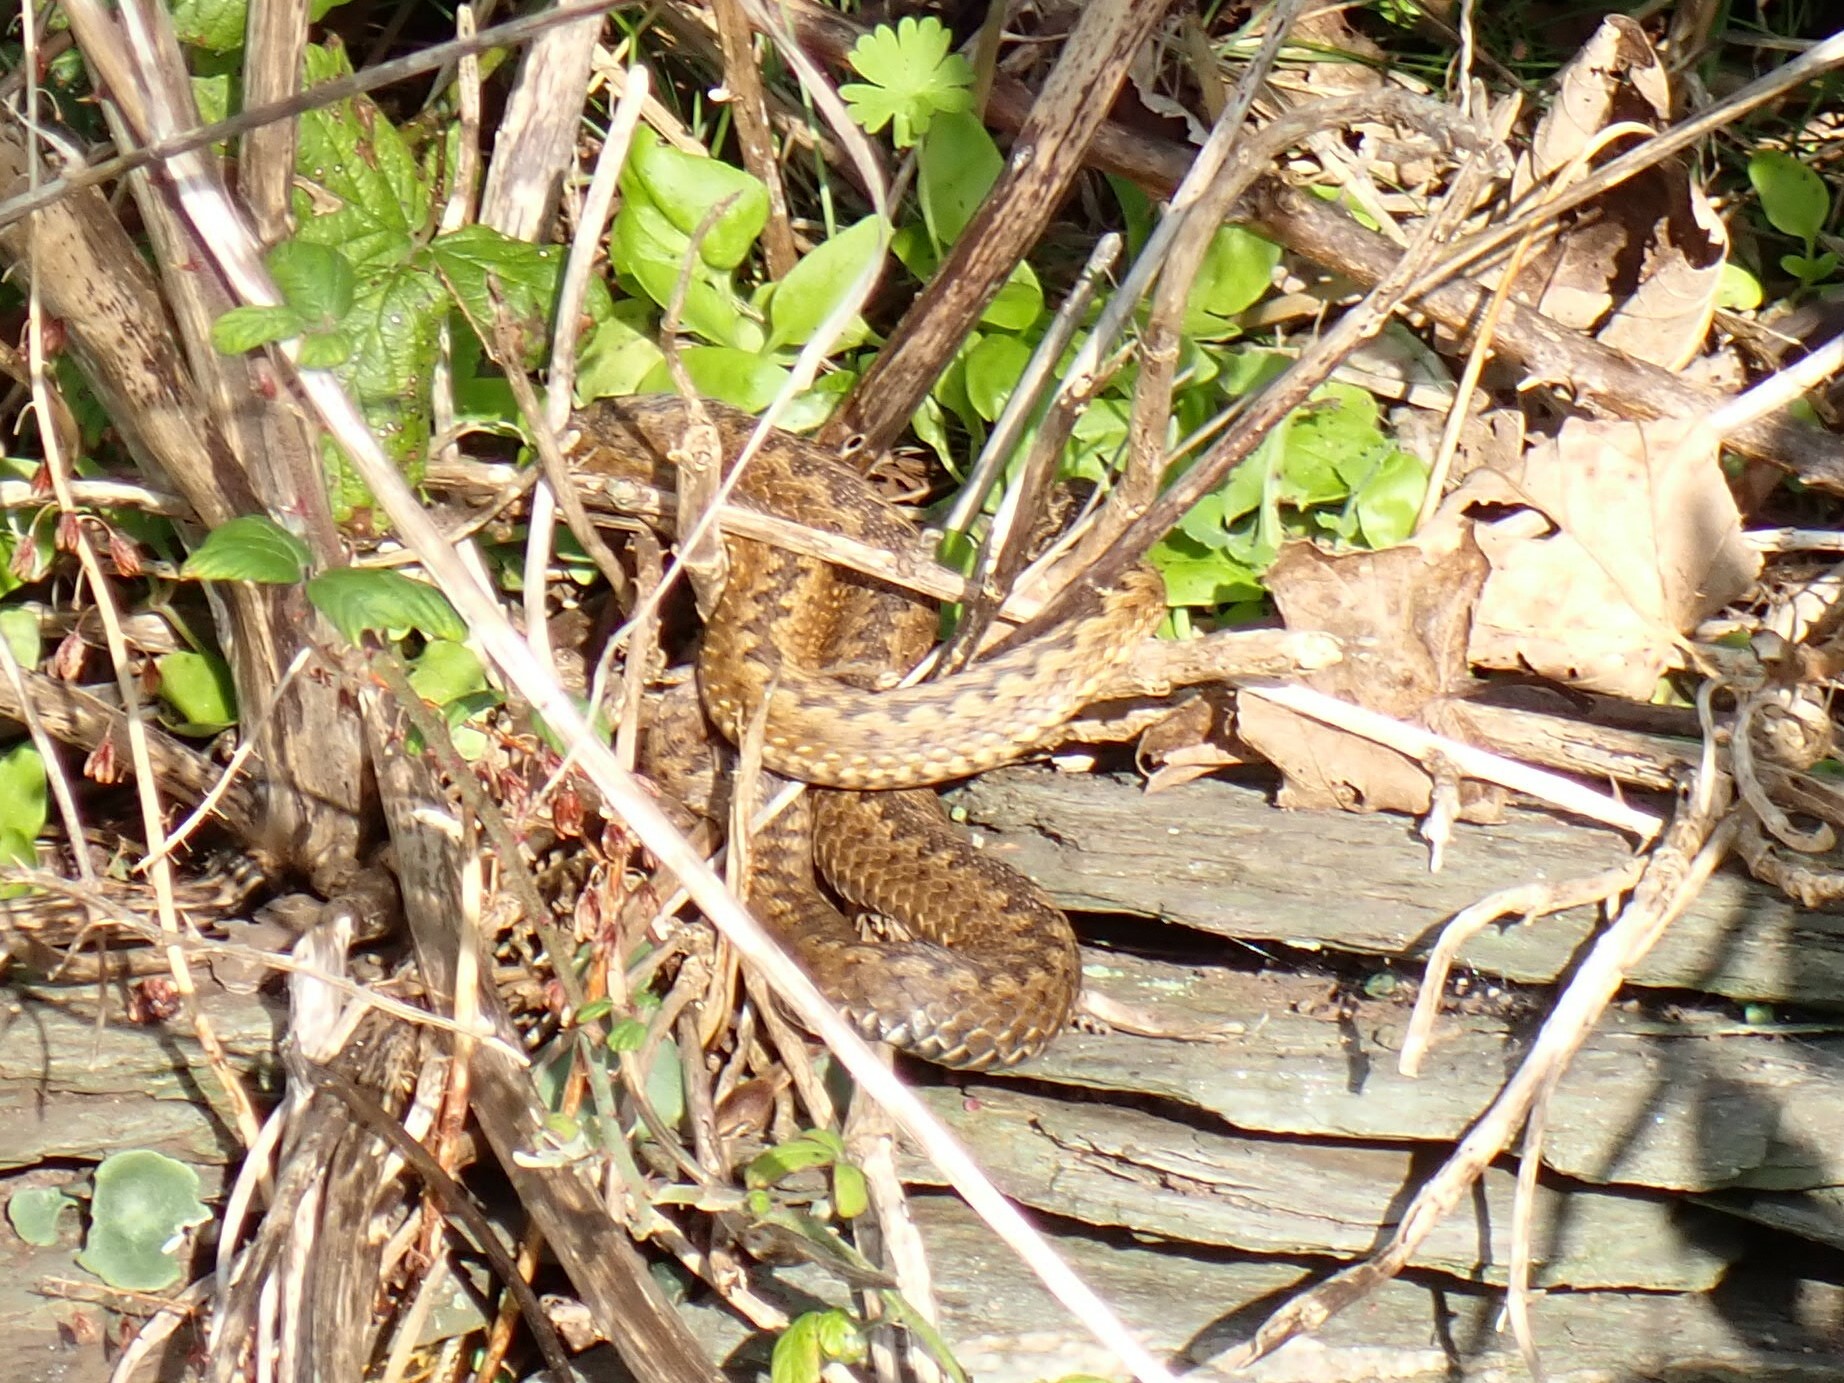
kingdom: Animalia
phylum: Chordata
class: Squamata
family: Viperidae
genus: Vipera
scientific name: Vipera berus
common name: Adder
